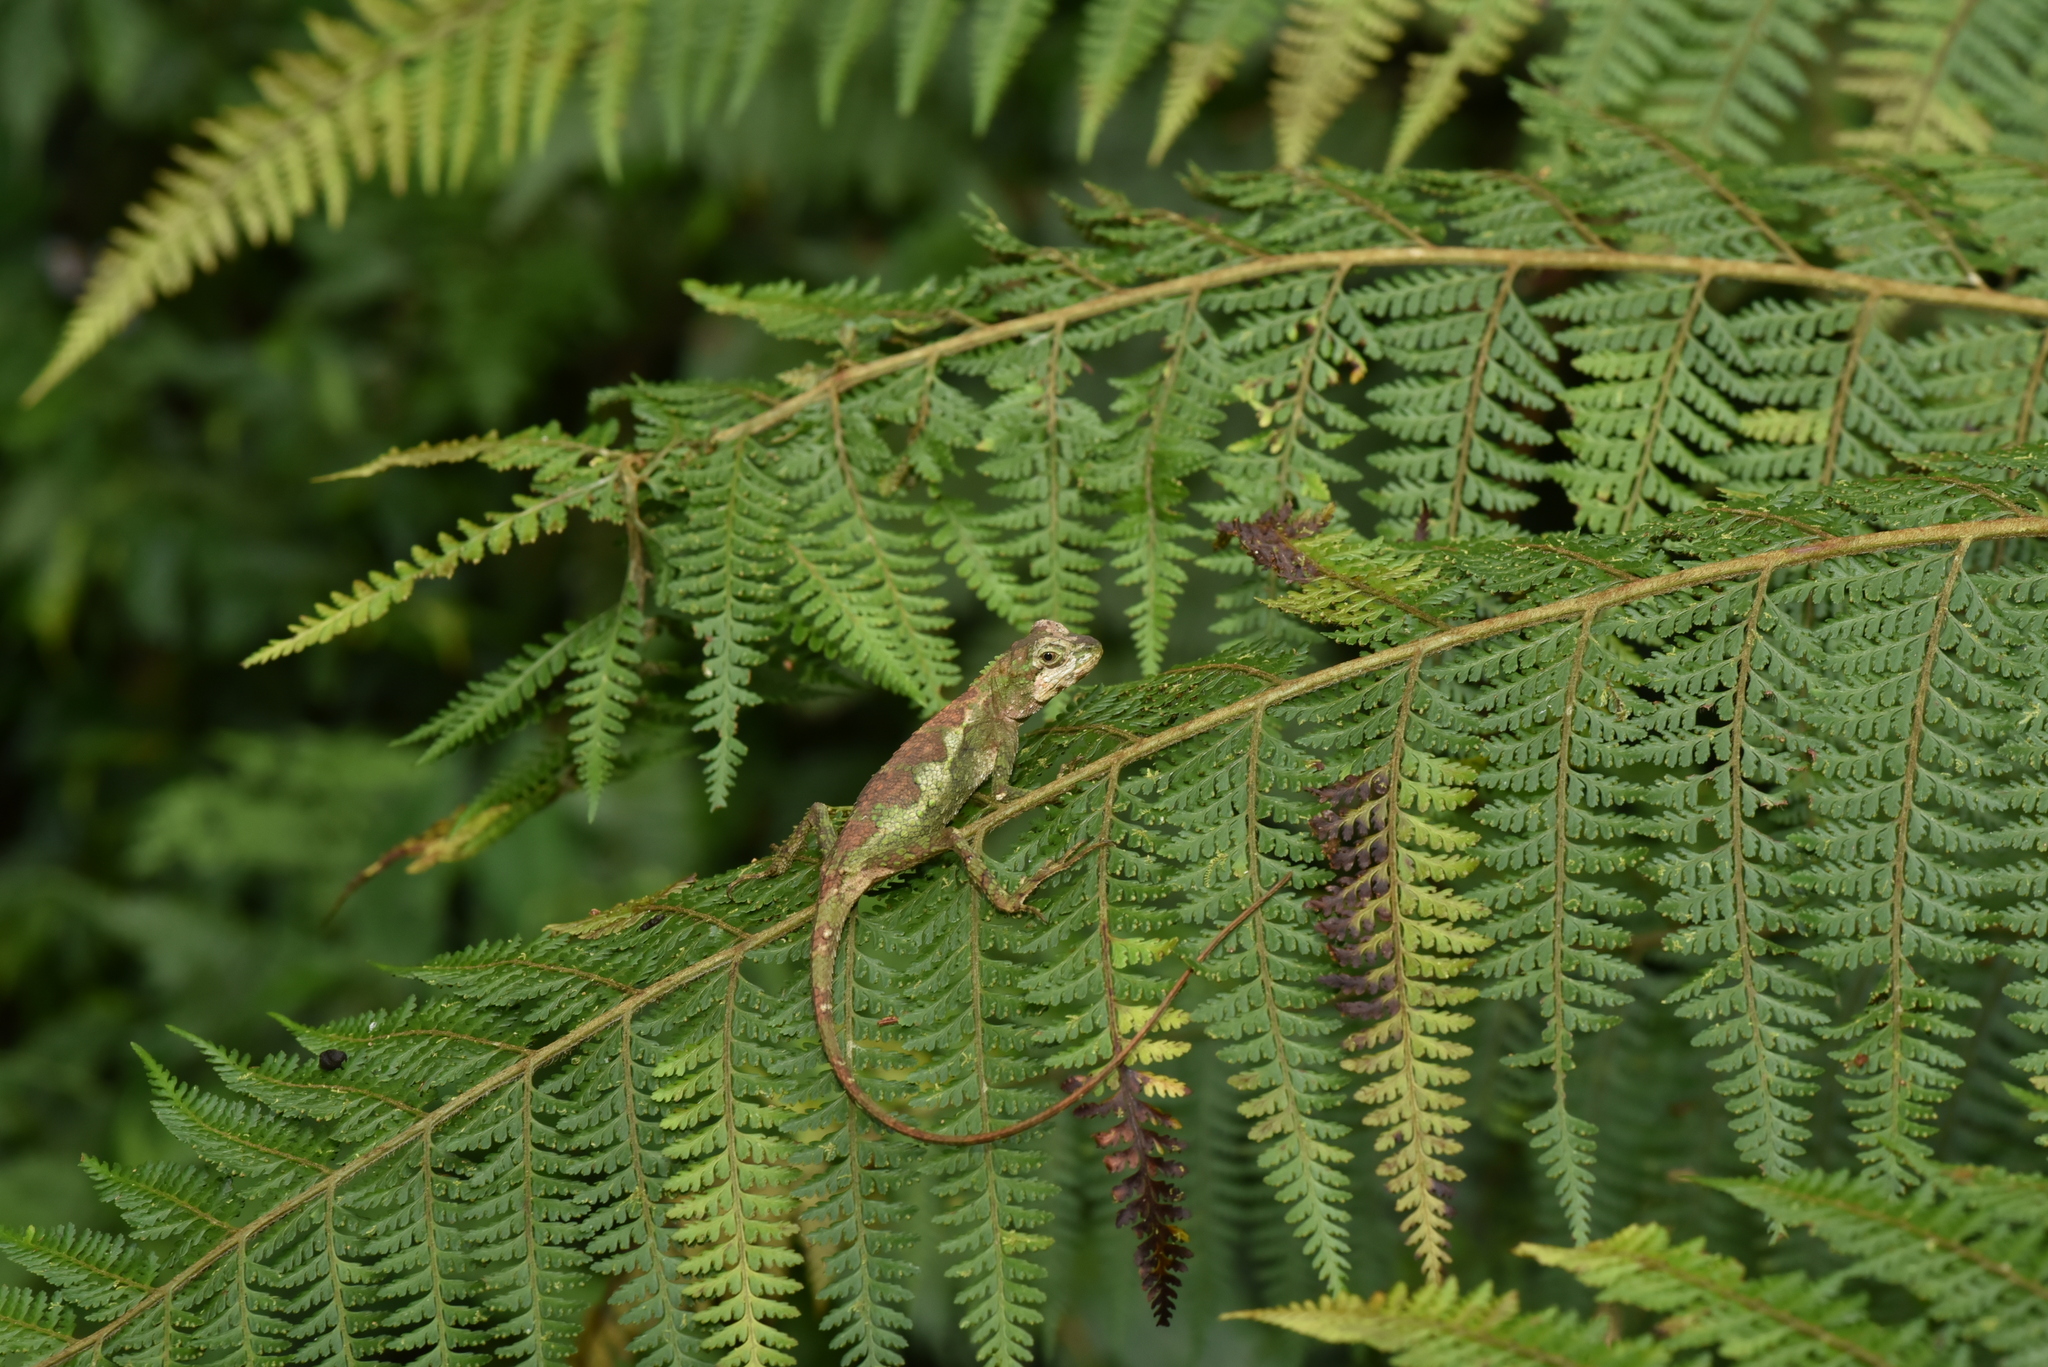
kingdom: Fungi
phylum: Basidiomycota
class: Agaricomycetes
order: Boletales
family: Diplocystidiaceae
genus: Diploderma
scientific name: Diploderma polygonatum
